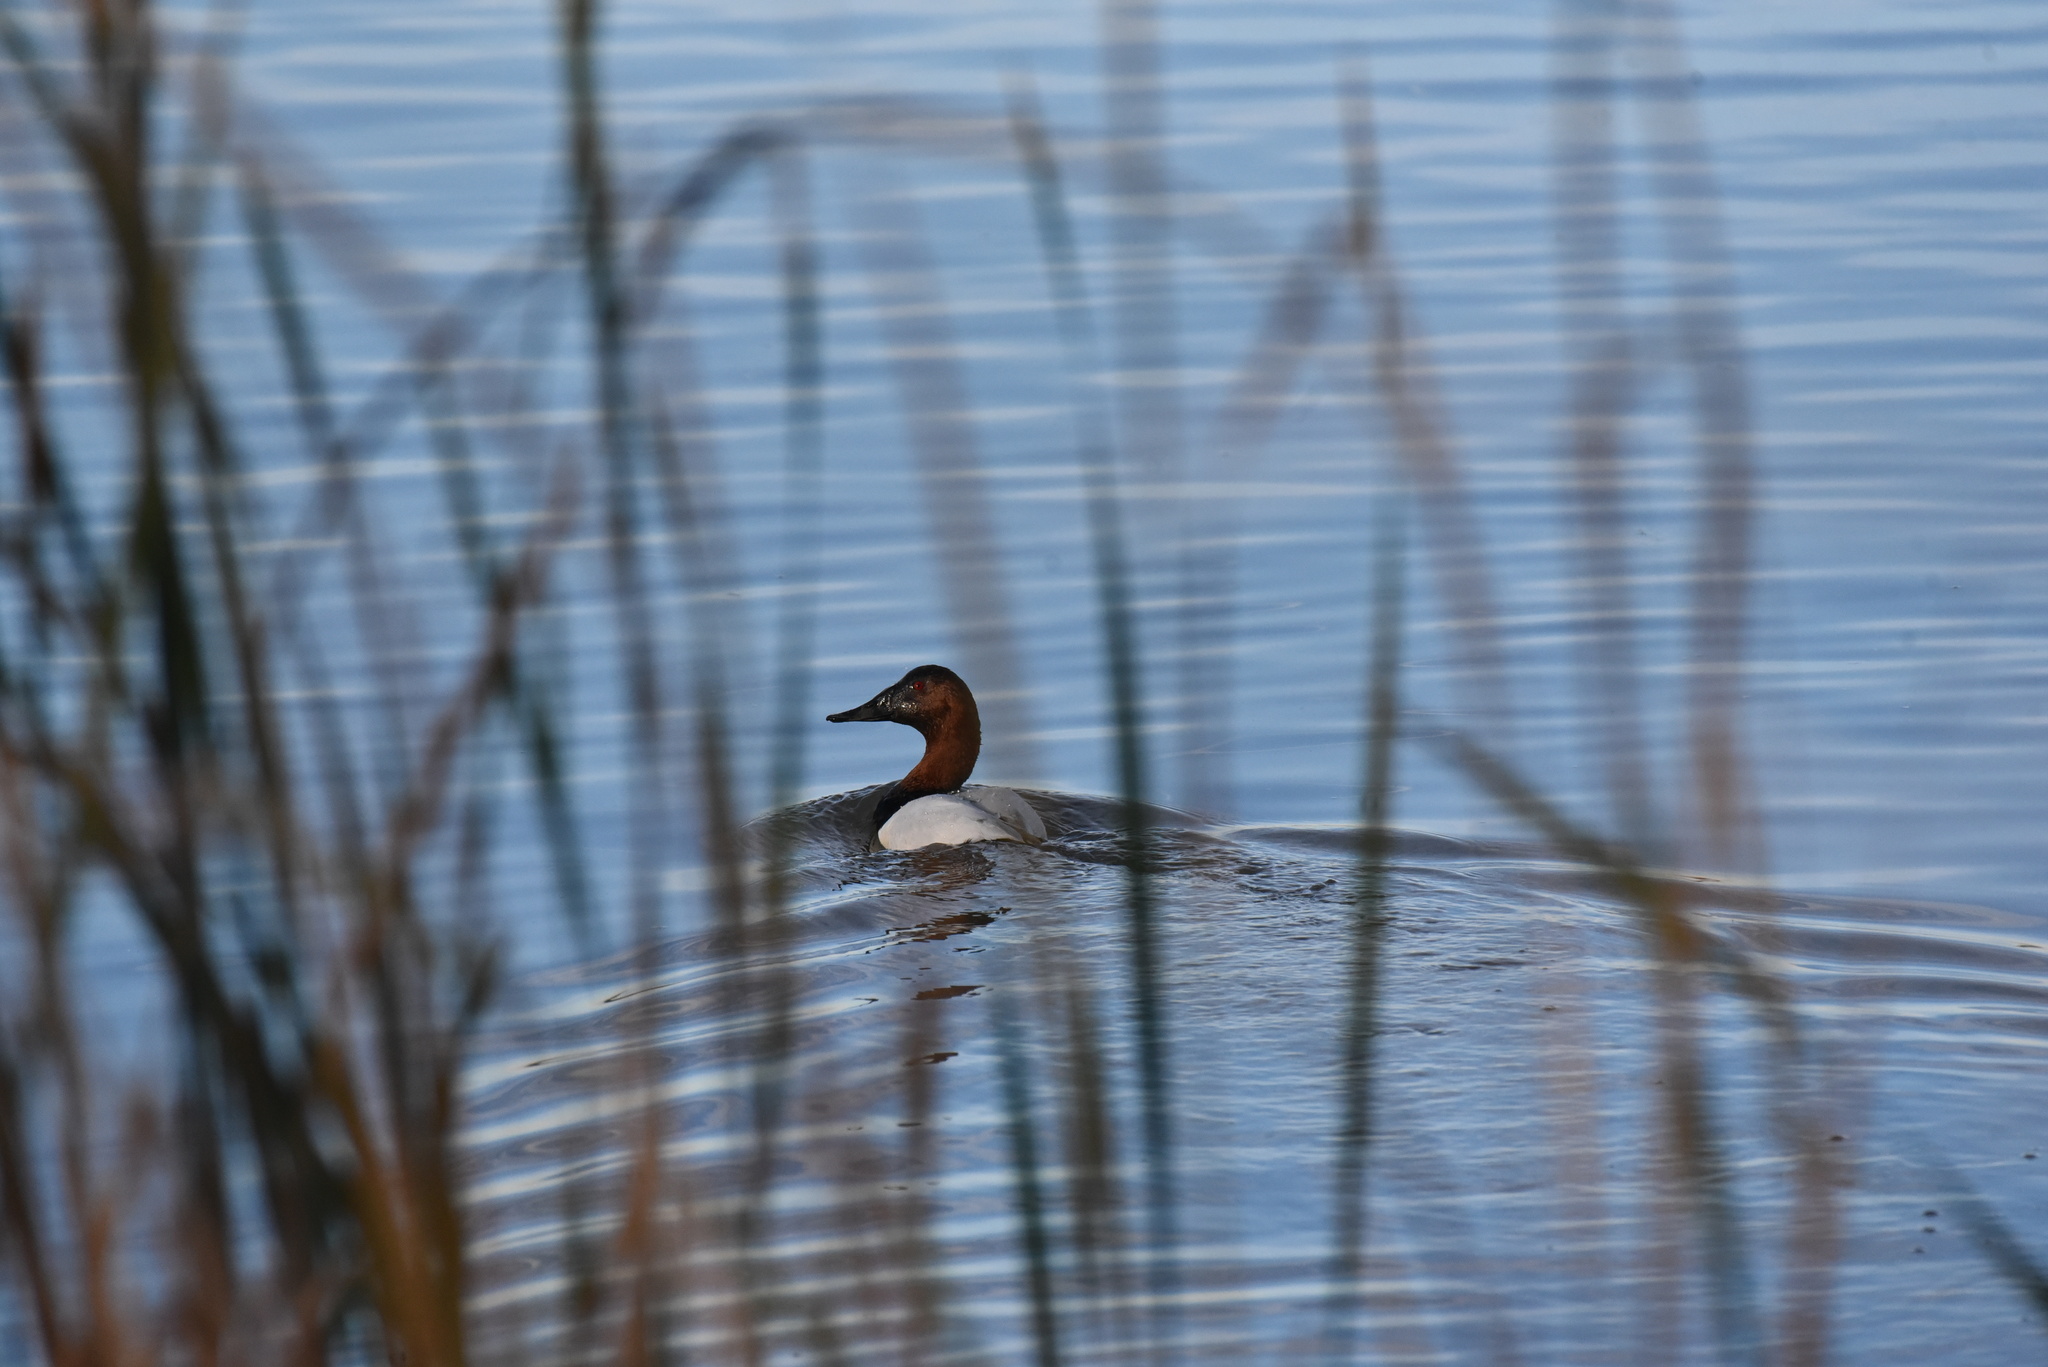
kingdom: Animalia
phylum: Chordata
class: Aves
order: Anseriformes
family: Anatidae
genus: Aythya
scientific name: Aythya valisineria
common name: Canvasback
